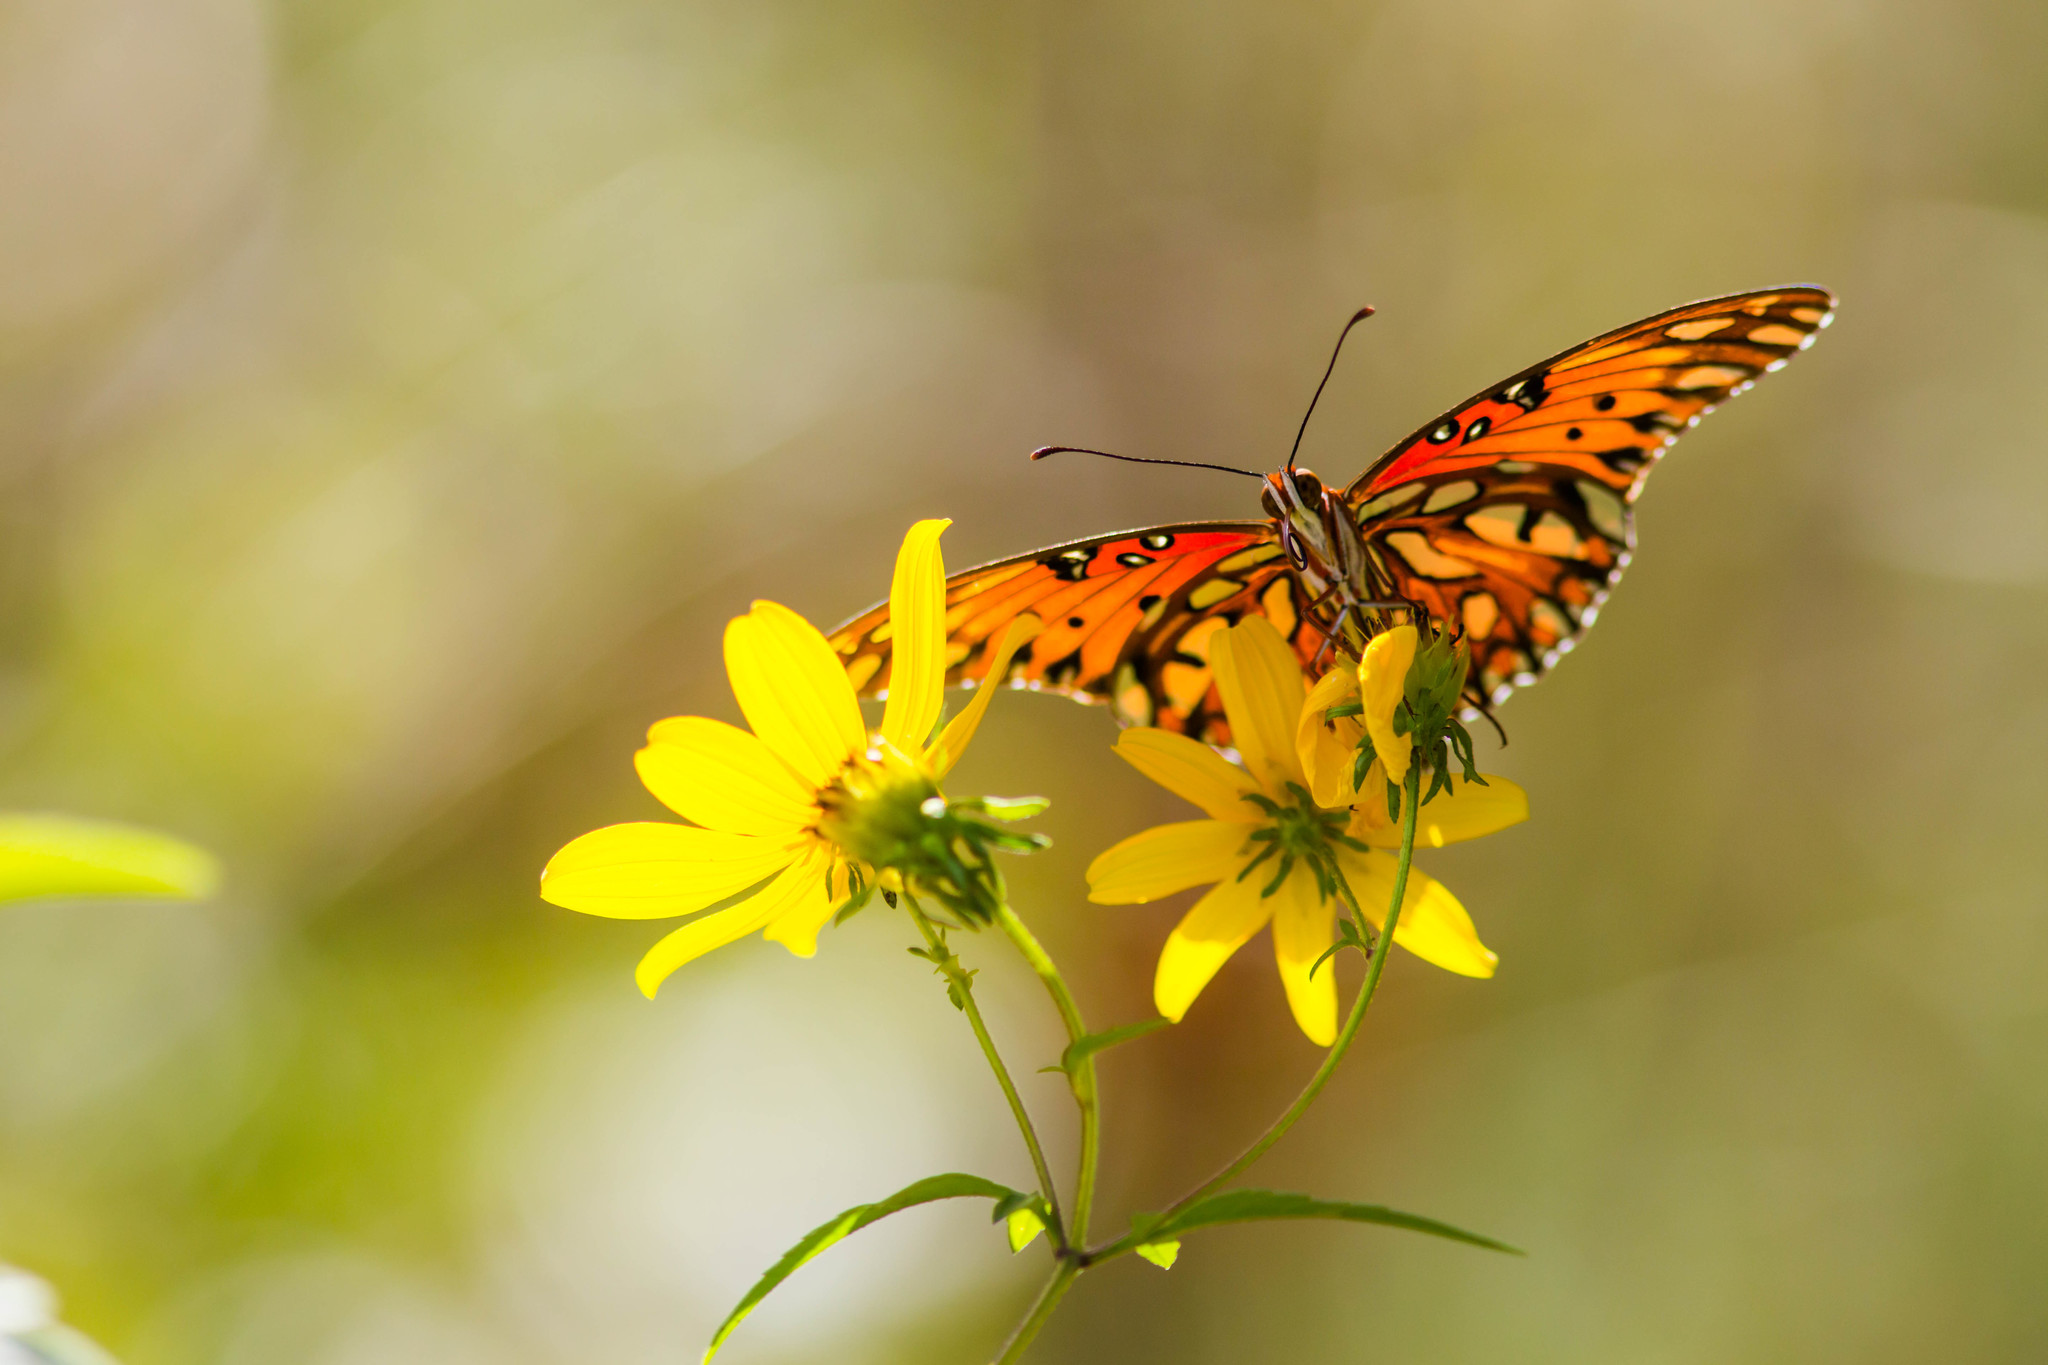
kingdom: Animalia
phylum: Arthropoda
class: Insecta
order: Lepidoptera
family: Nymphalidae
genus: Dione
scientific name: Dione vanillae
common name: Gulf fritillary
